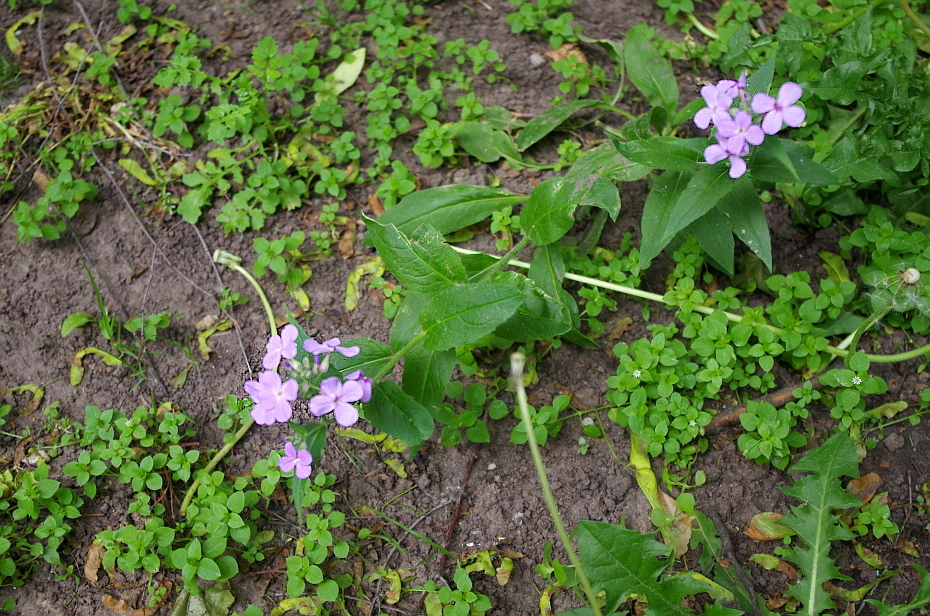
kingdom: Plantae
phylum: Tracheophyta
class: Magnoliopsida
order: Brassicales
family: Brassicaceae
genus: Hesperis
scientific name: Hesperis matronalis
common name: Dame's-violet
